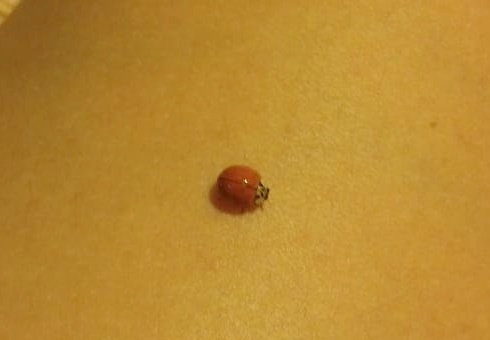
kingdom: Animalia
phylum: Arthropoda
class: Insecta
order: Coleoptera
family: Coccinellidae
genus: Harmonia
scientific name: Harmonia axyridis
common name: Harlequin ladybird
